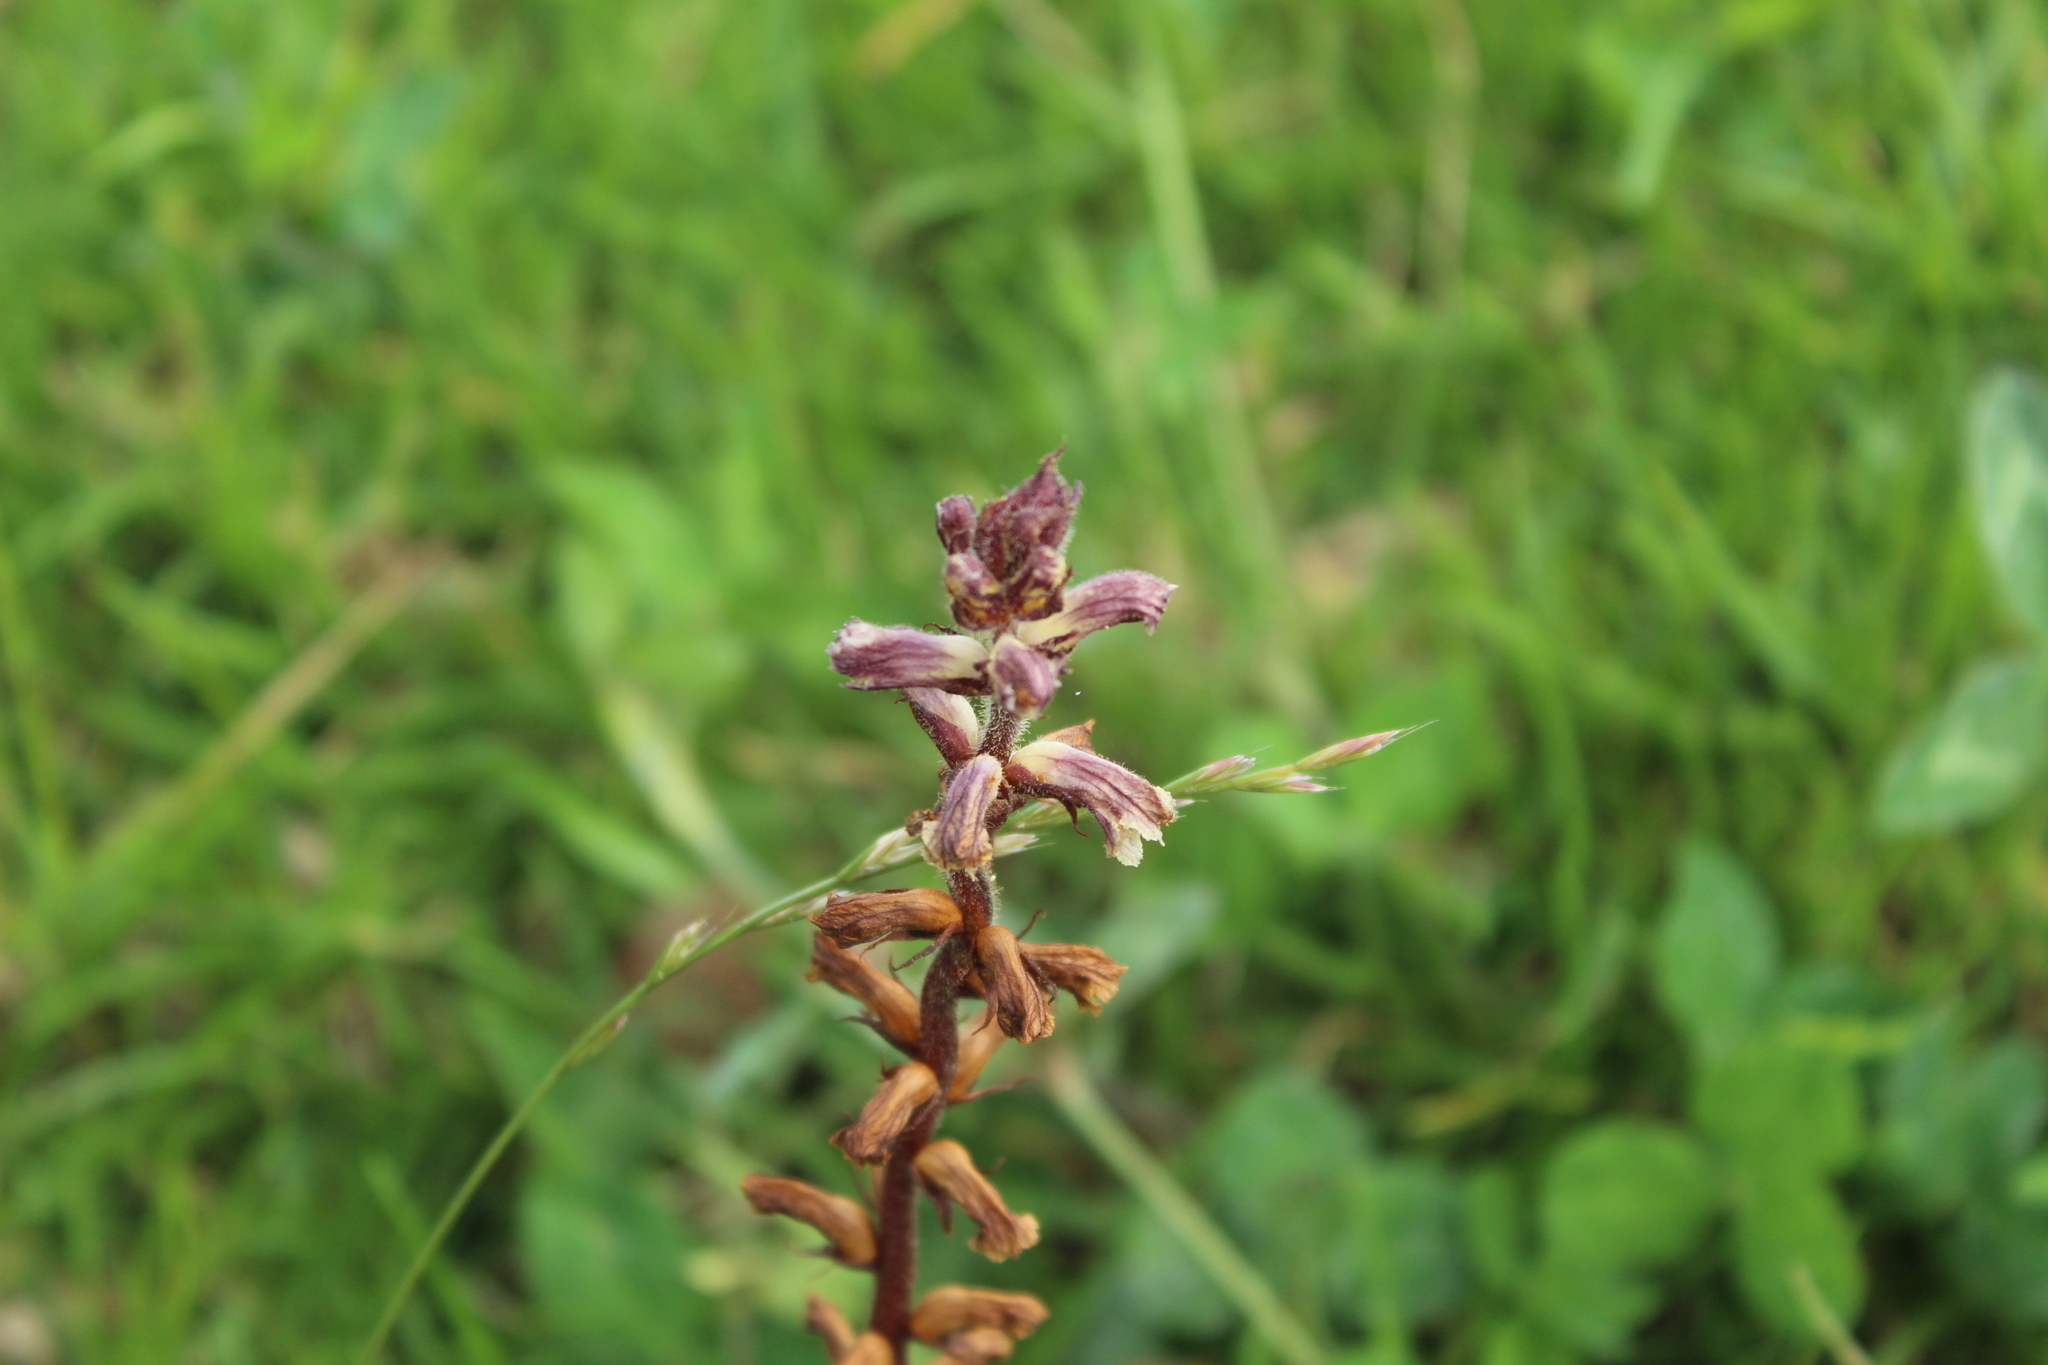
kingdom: Plantae
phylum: Tracheophyta
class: Magnoliopsida
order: Lamiales
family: Orobanchaceae
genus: Orobanche
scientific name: Orobanche minor
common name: Common broomrape
